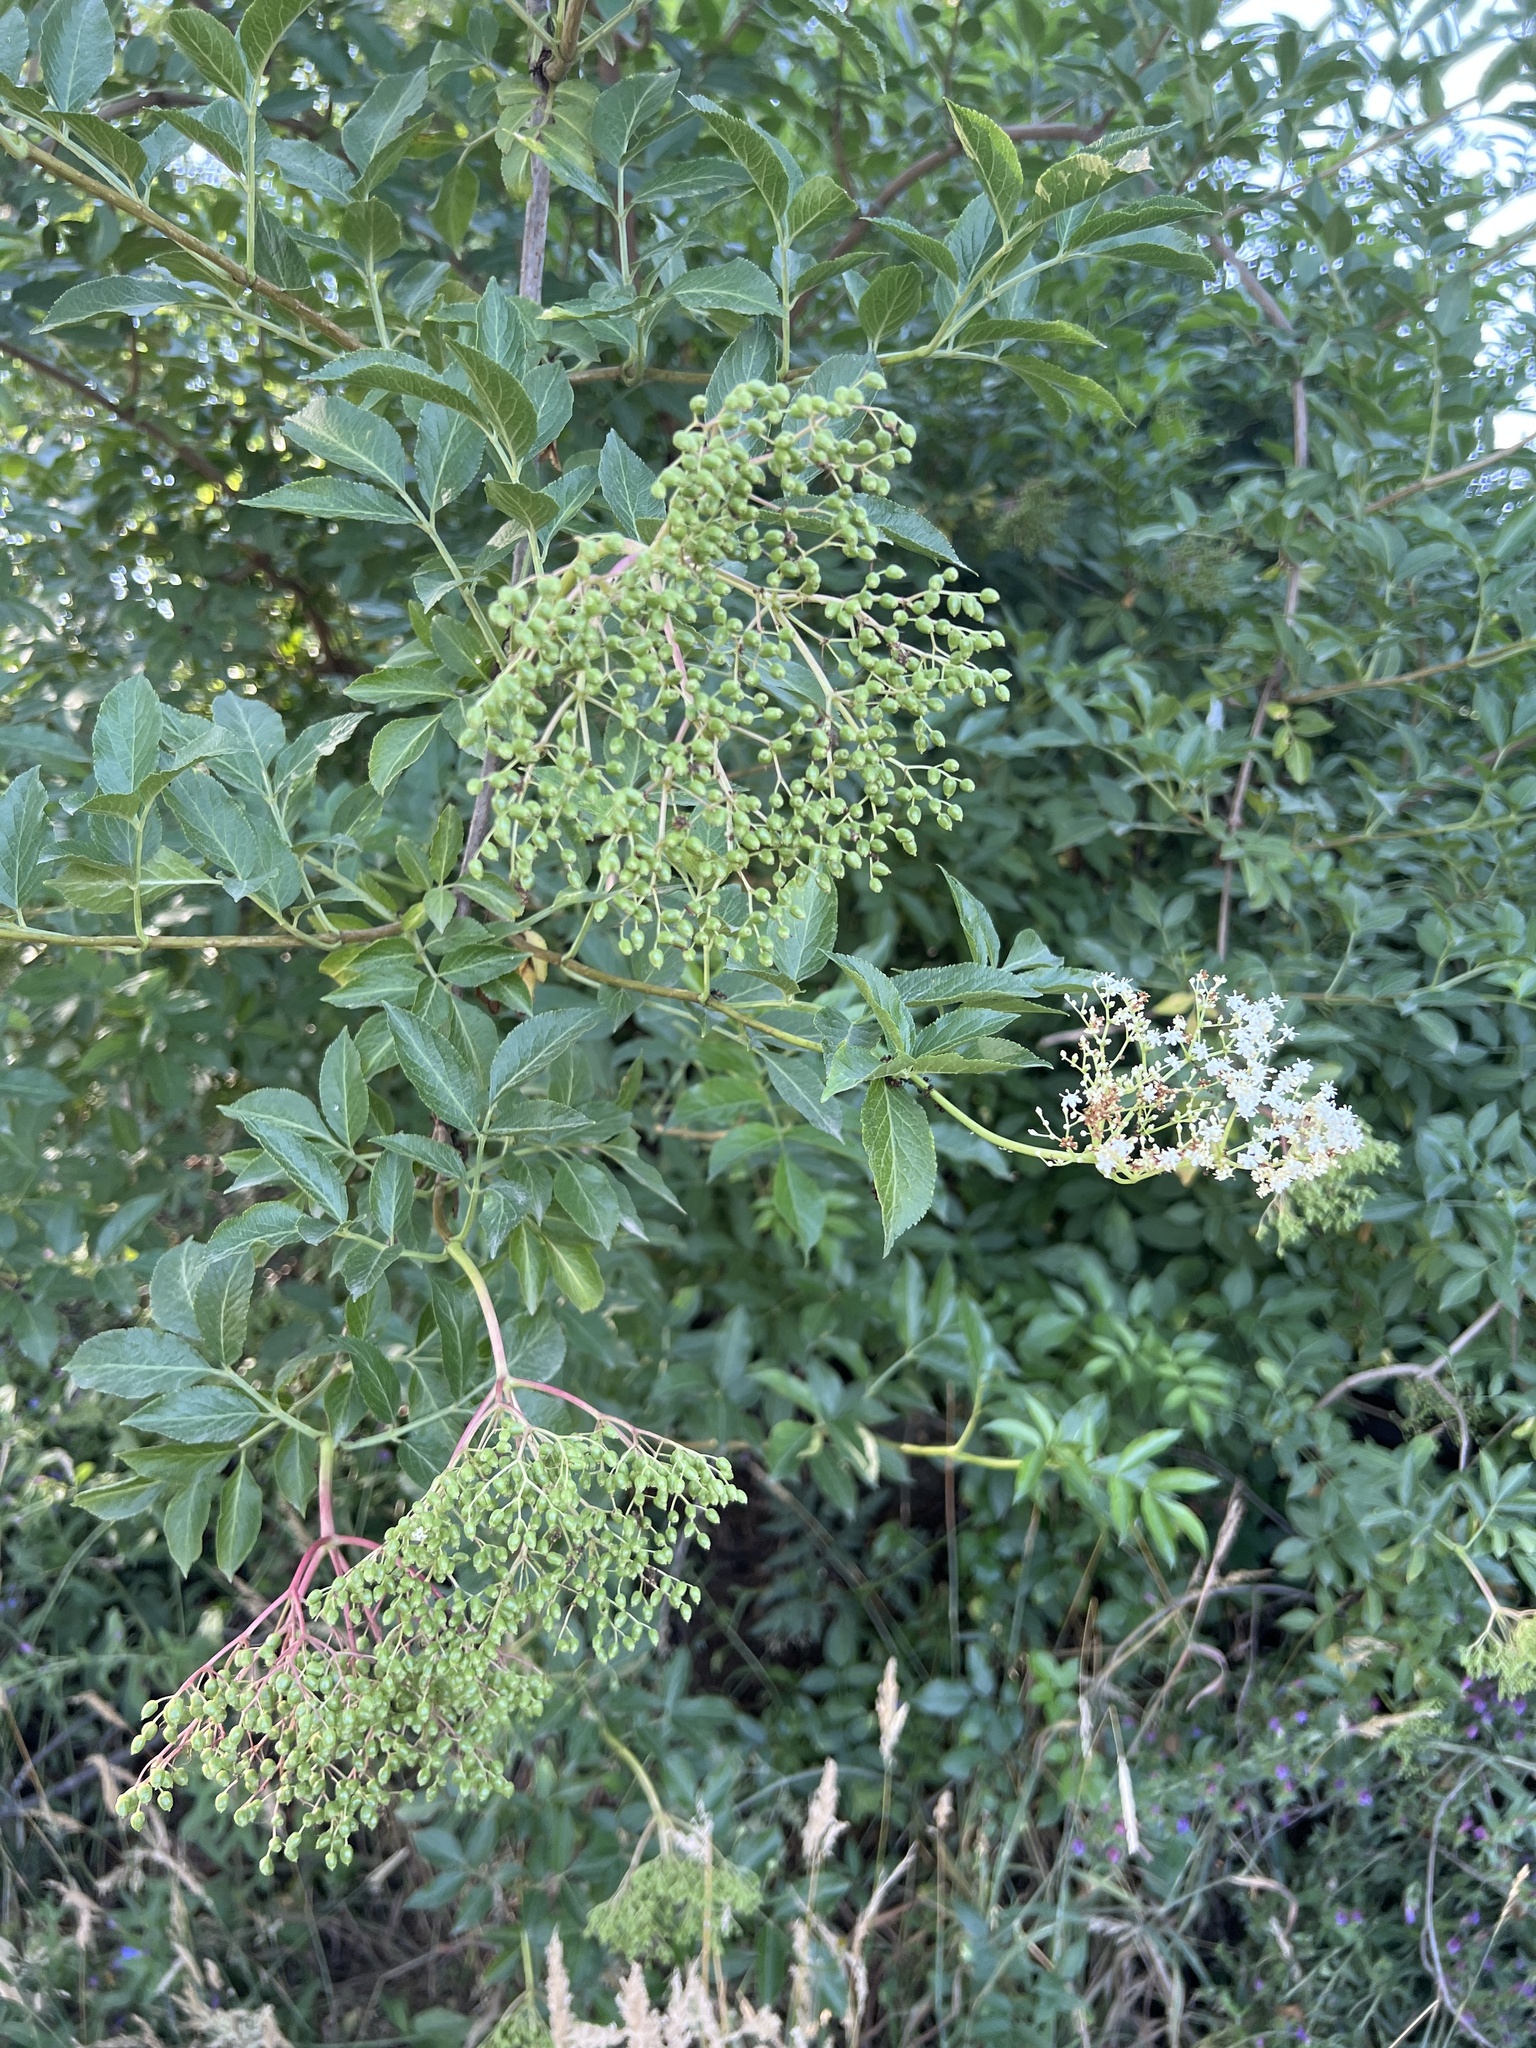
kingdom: Plantae
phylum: Tracheophyta
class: Magnoliopsida
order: Dipsacales
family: Viburnaceae
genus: Sambucus
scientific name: Sambucus nigra
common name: Elder
